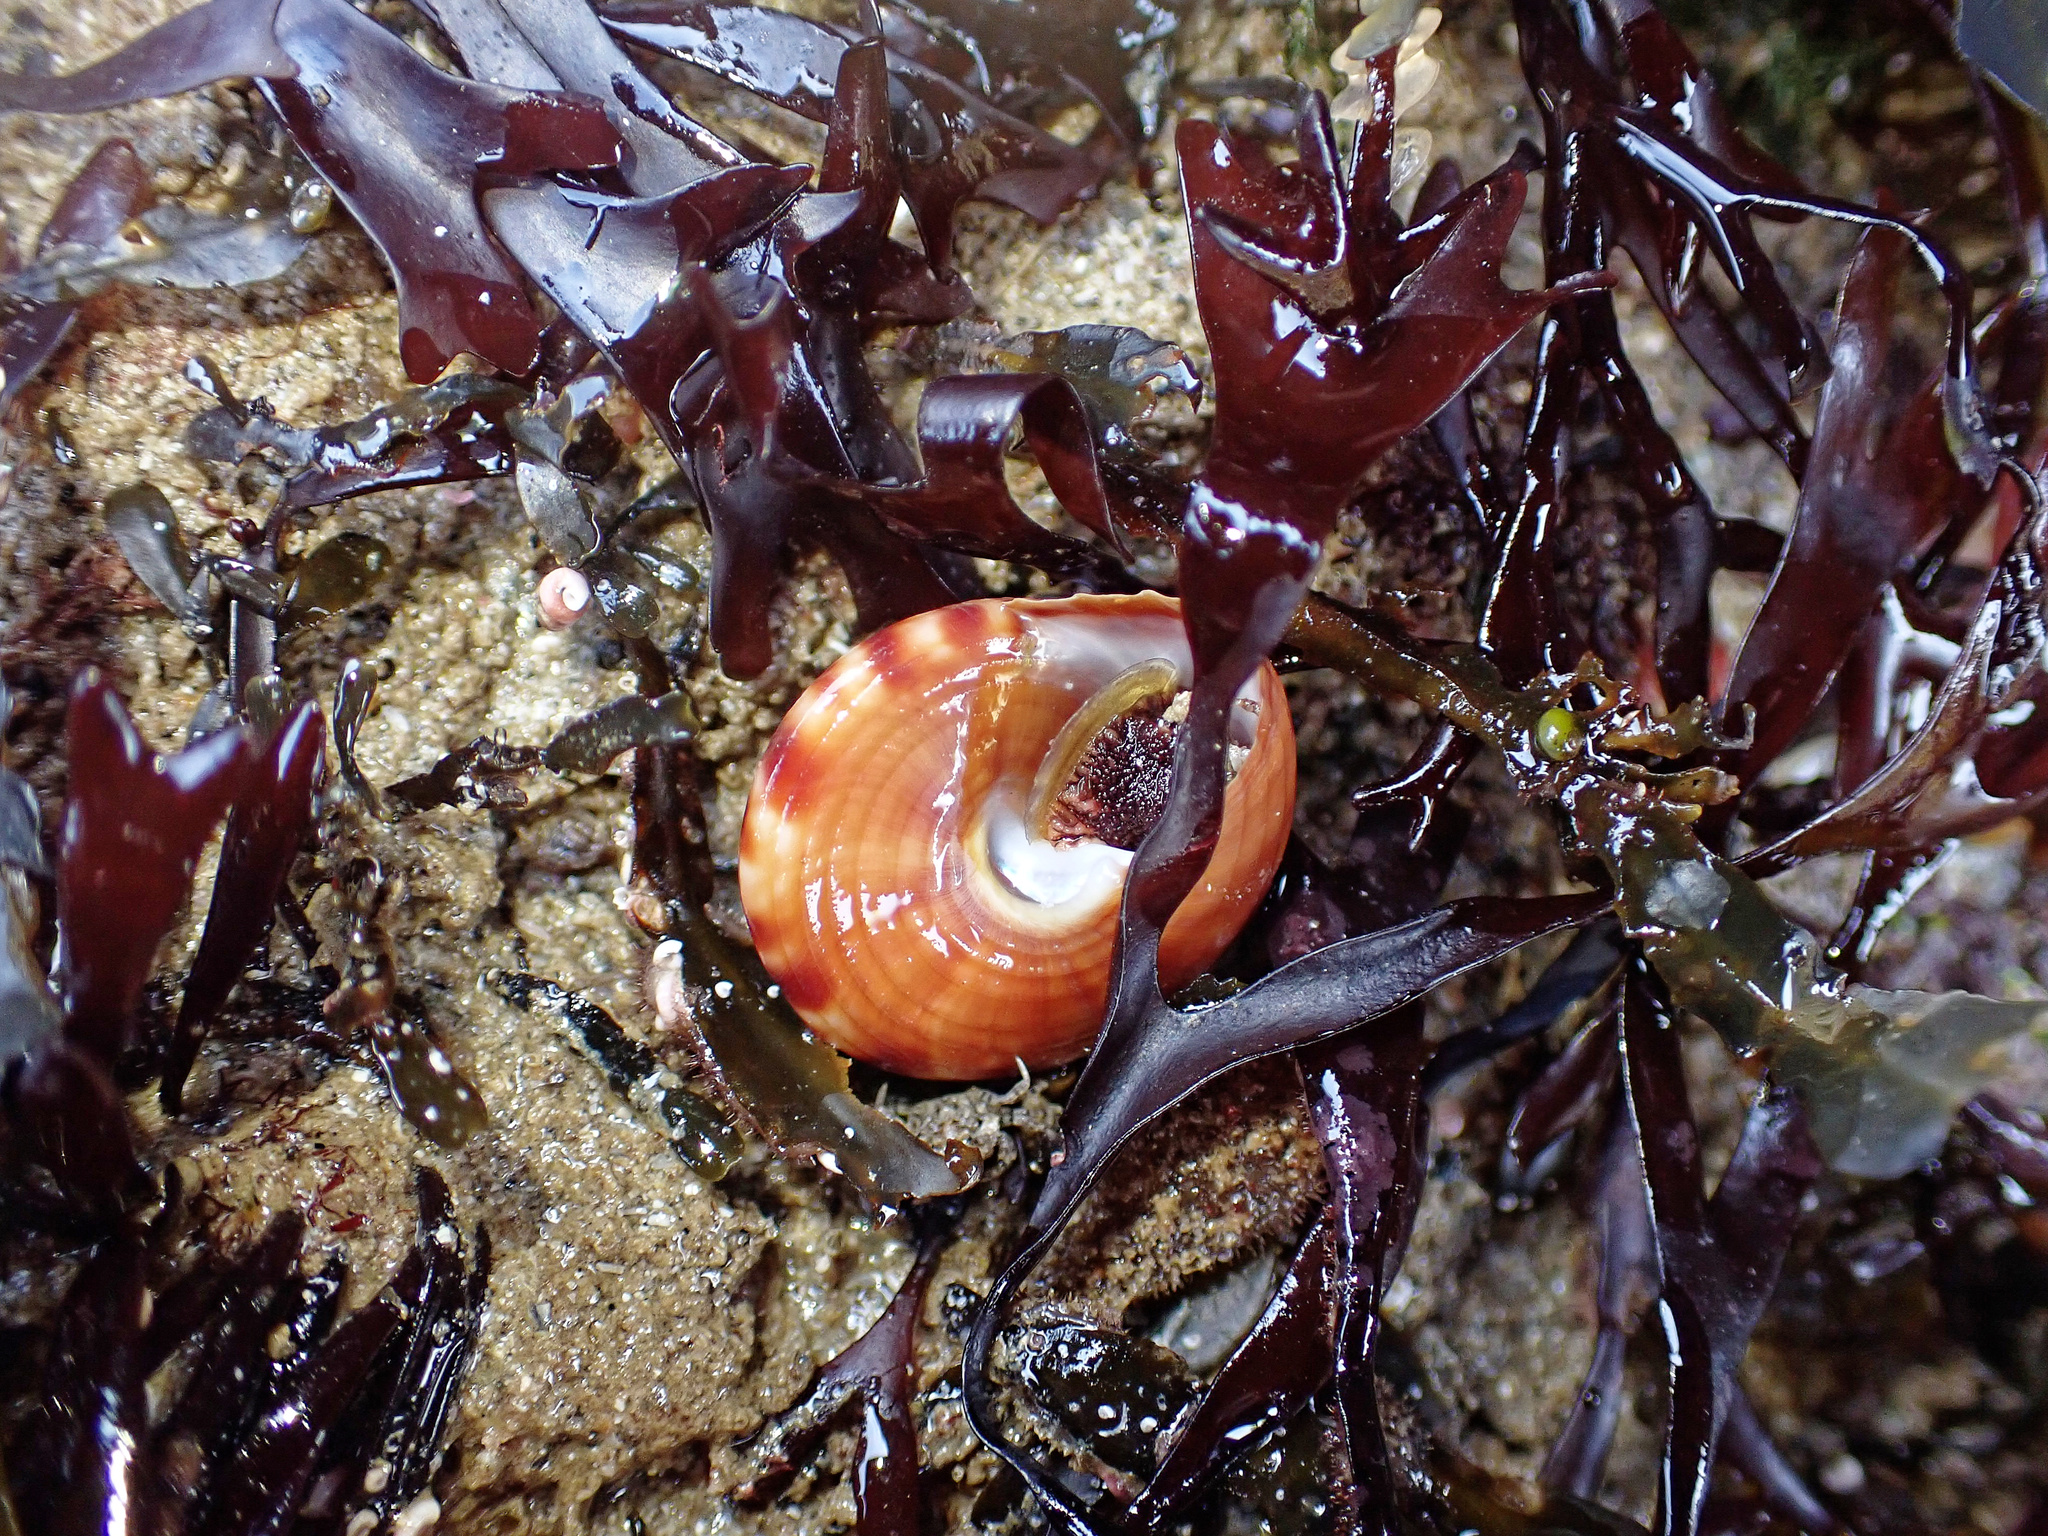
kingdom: Animalia
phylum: Mollusca
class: Gastropoda
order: Trochida
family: Calliostomatidae
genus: Calliostoma
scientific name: Calliostoma zizyphinum
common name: Painted top shell
